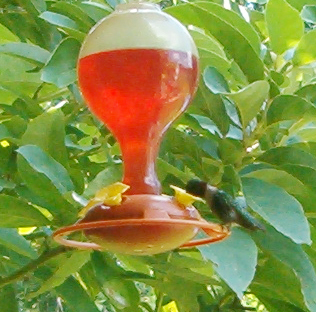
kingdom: Animalia
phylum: Chordata
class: Aves
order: Apodiformes
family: Trochilidae
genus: Archilochus
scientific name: Archilochus colubris
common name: Ruby-throated hummingbird
